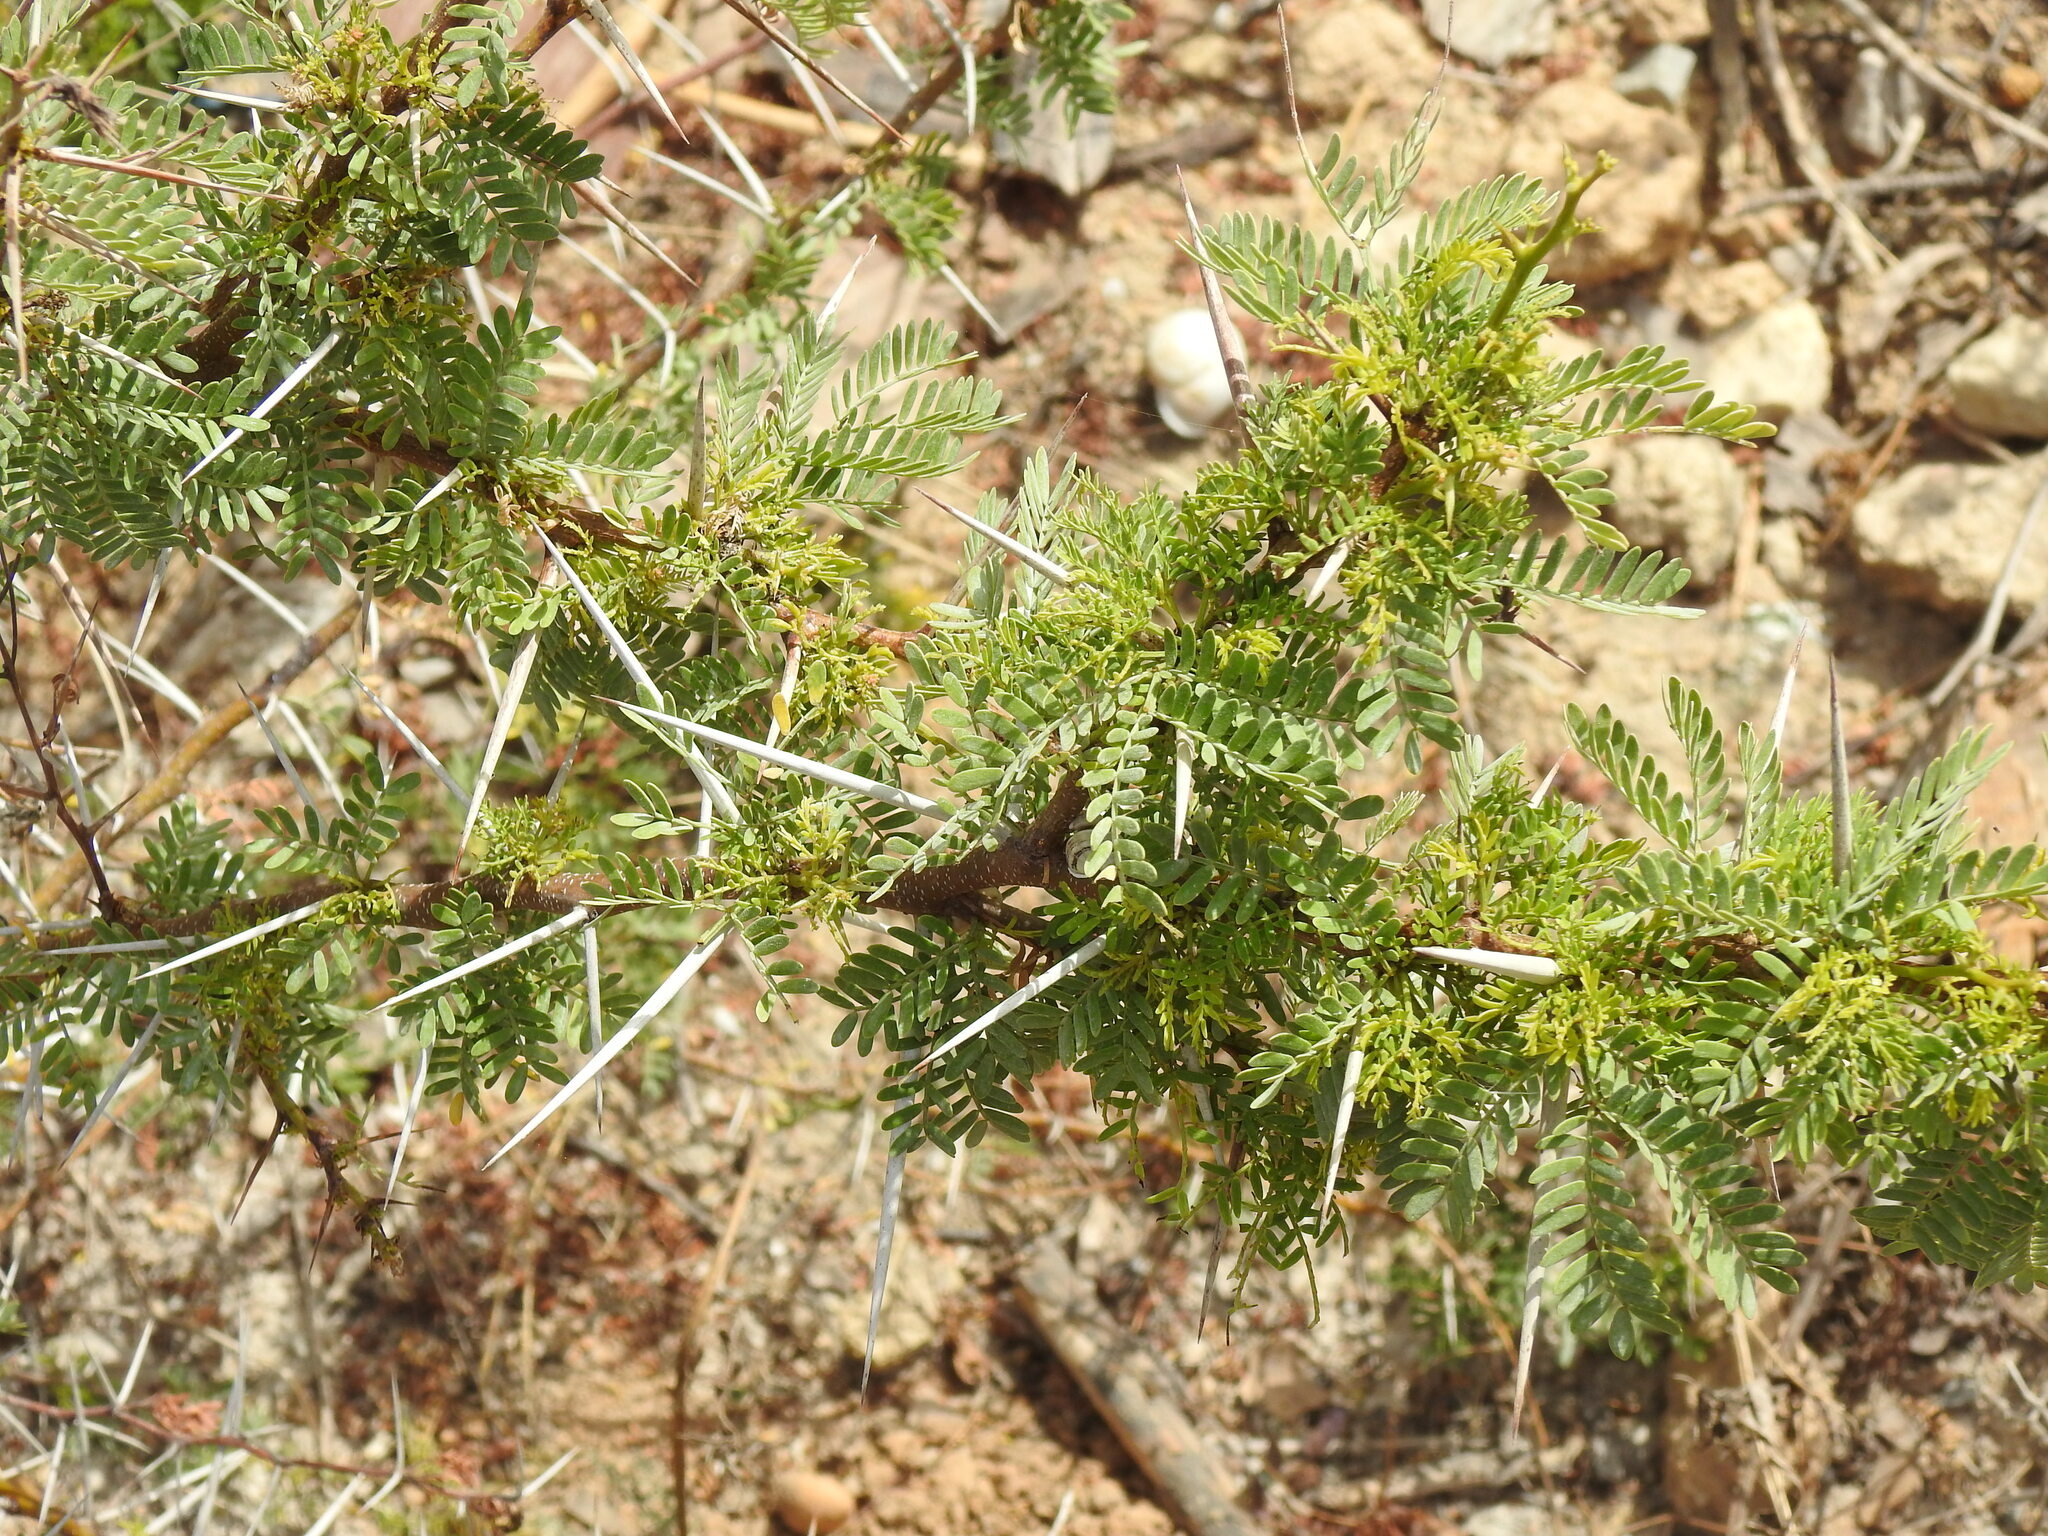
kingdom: Plantae
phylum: Tracheophyta
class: Magnoliopsida
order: Fabales
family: Fabaceae
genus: Vachellia
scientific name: Vachellia karroo
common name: Sweet thorn
